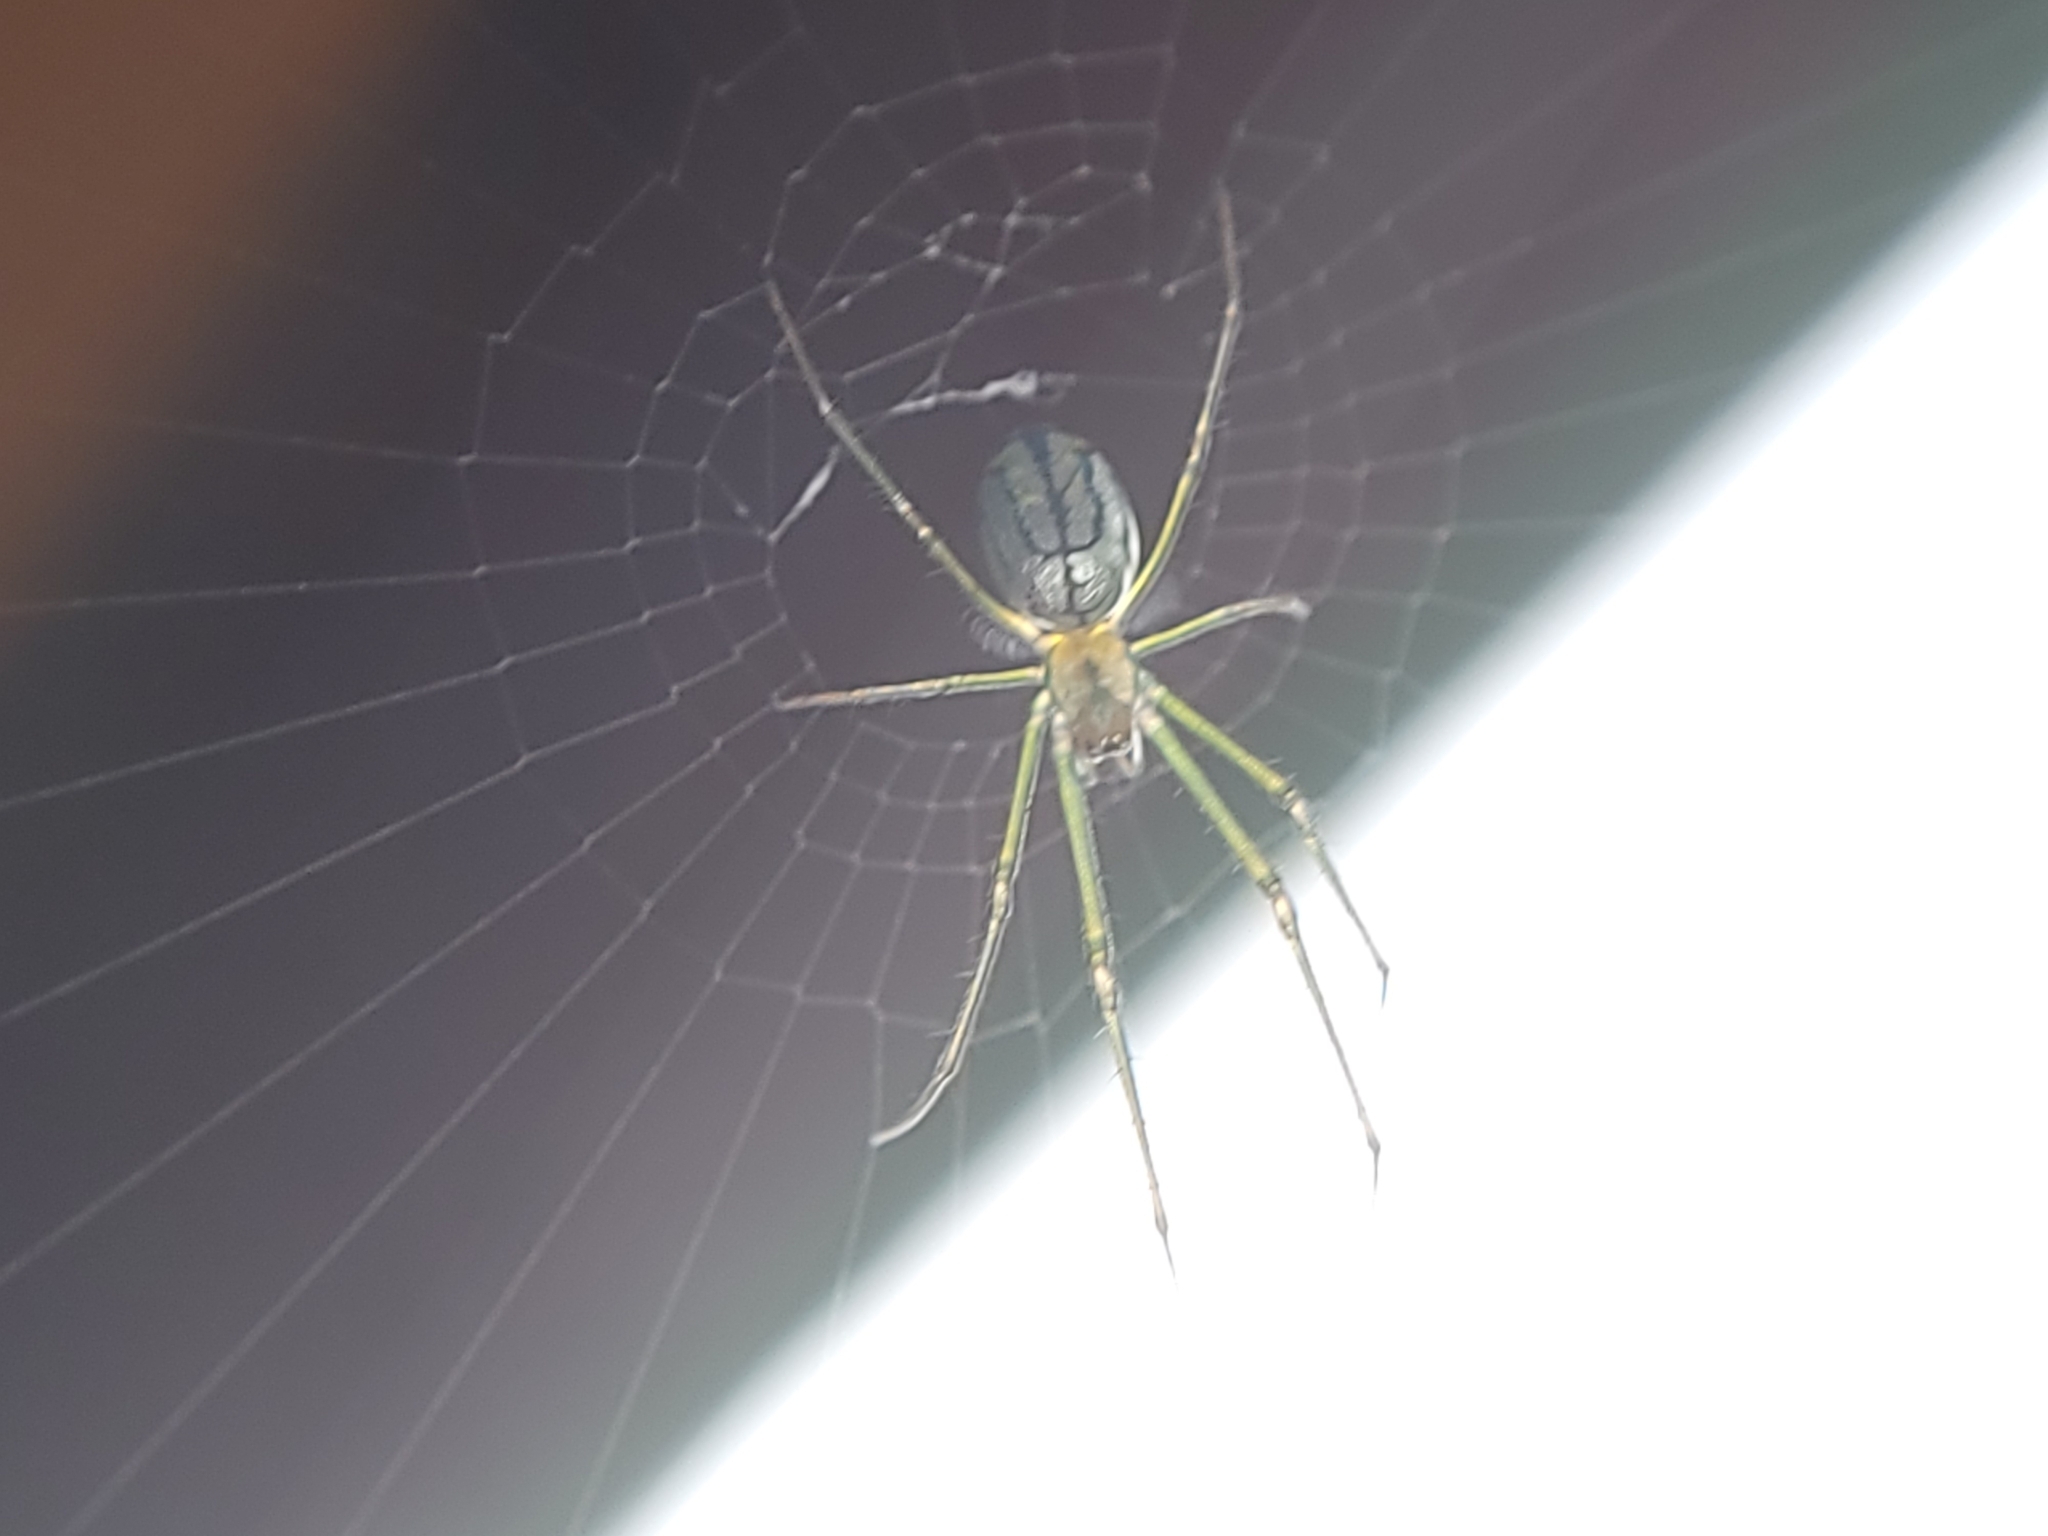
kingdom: Animalia
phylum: Arthropoda
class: Arachnida
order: Araneae
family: Tetragnathidae
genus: Leucauge
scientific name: Leucauge argyrobapta
